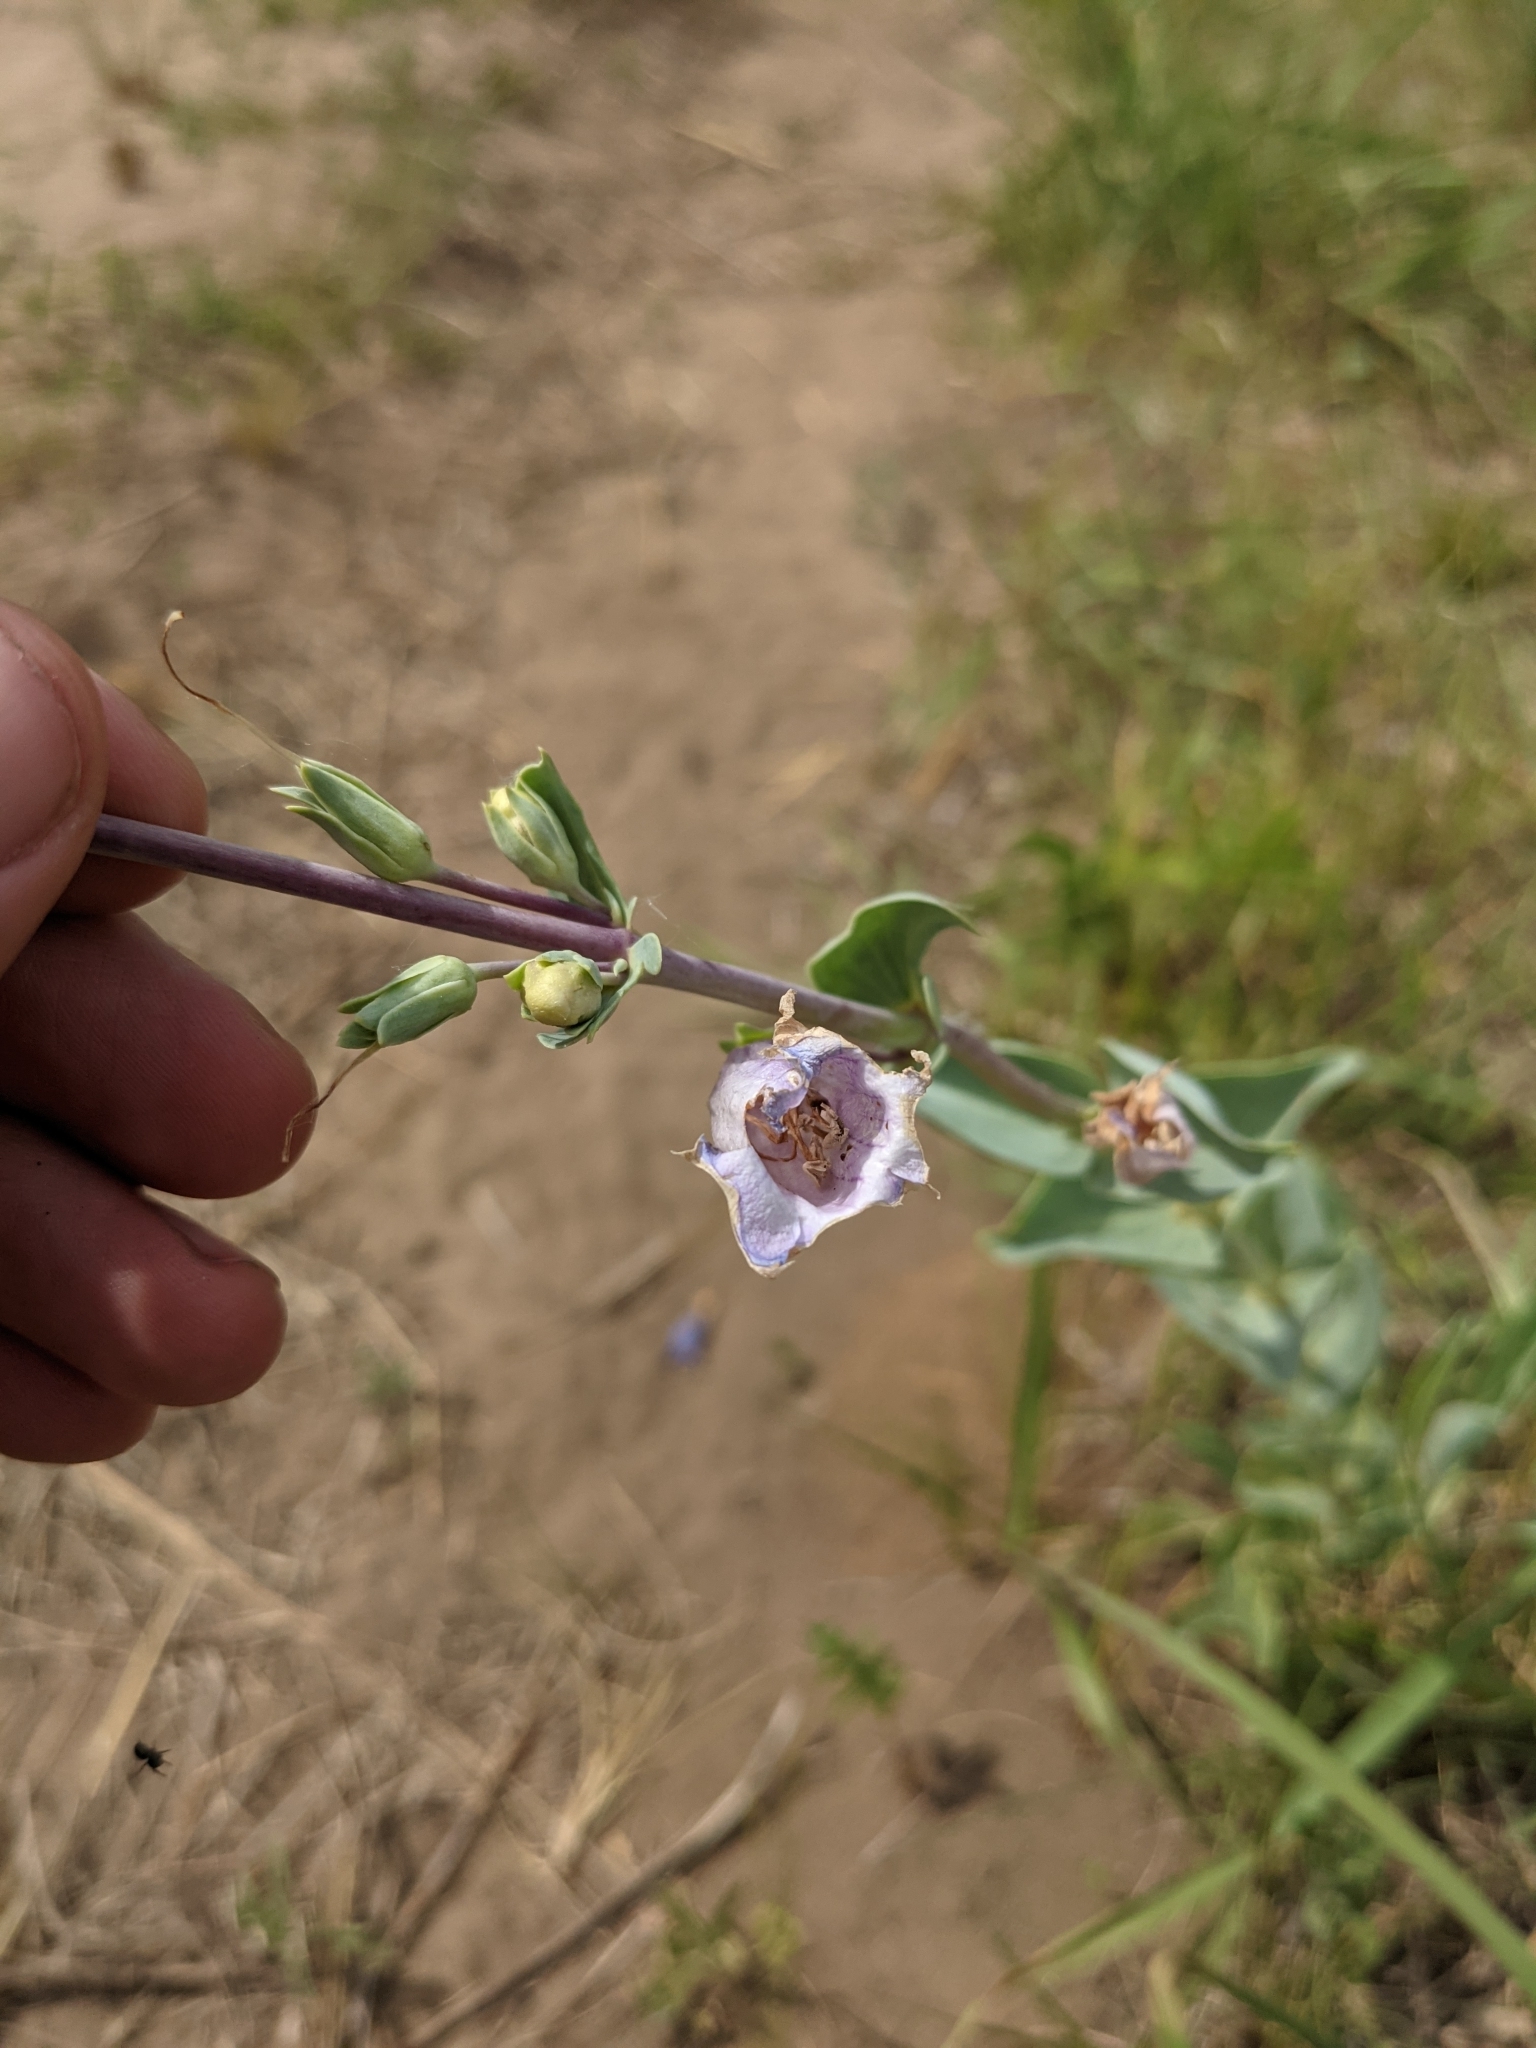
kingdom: Plantae
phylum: Tracheophyta
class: Magnoliopsida
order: Lamiales
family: Plantaginaceae
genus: Penstemon
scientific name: Penstemon
